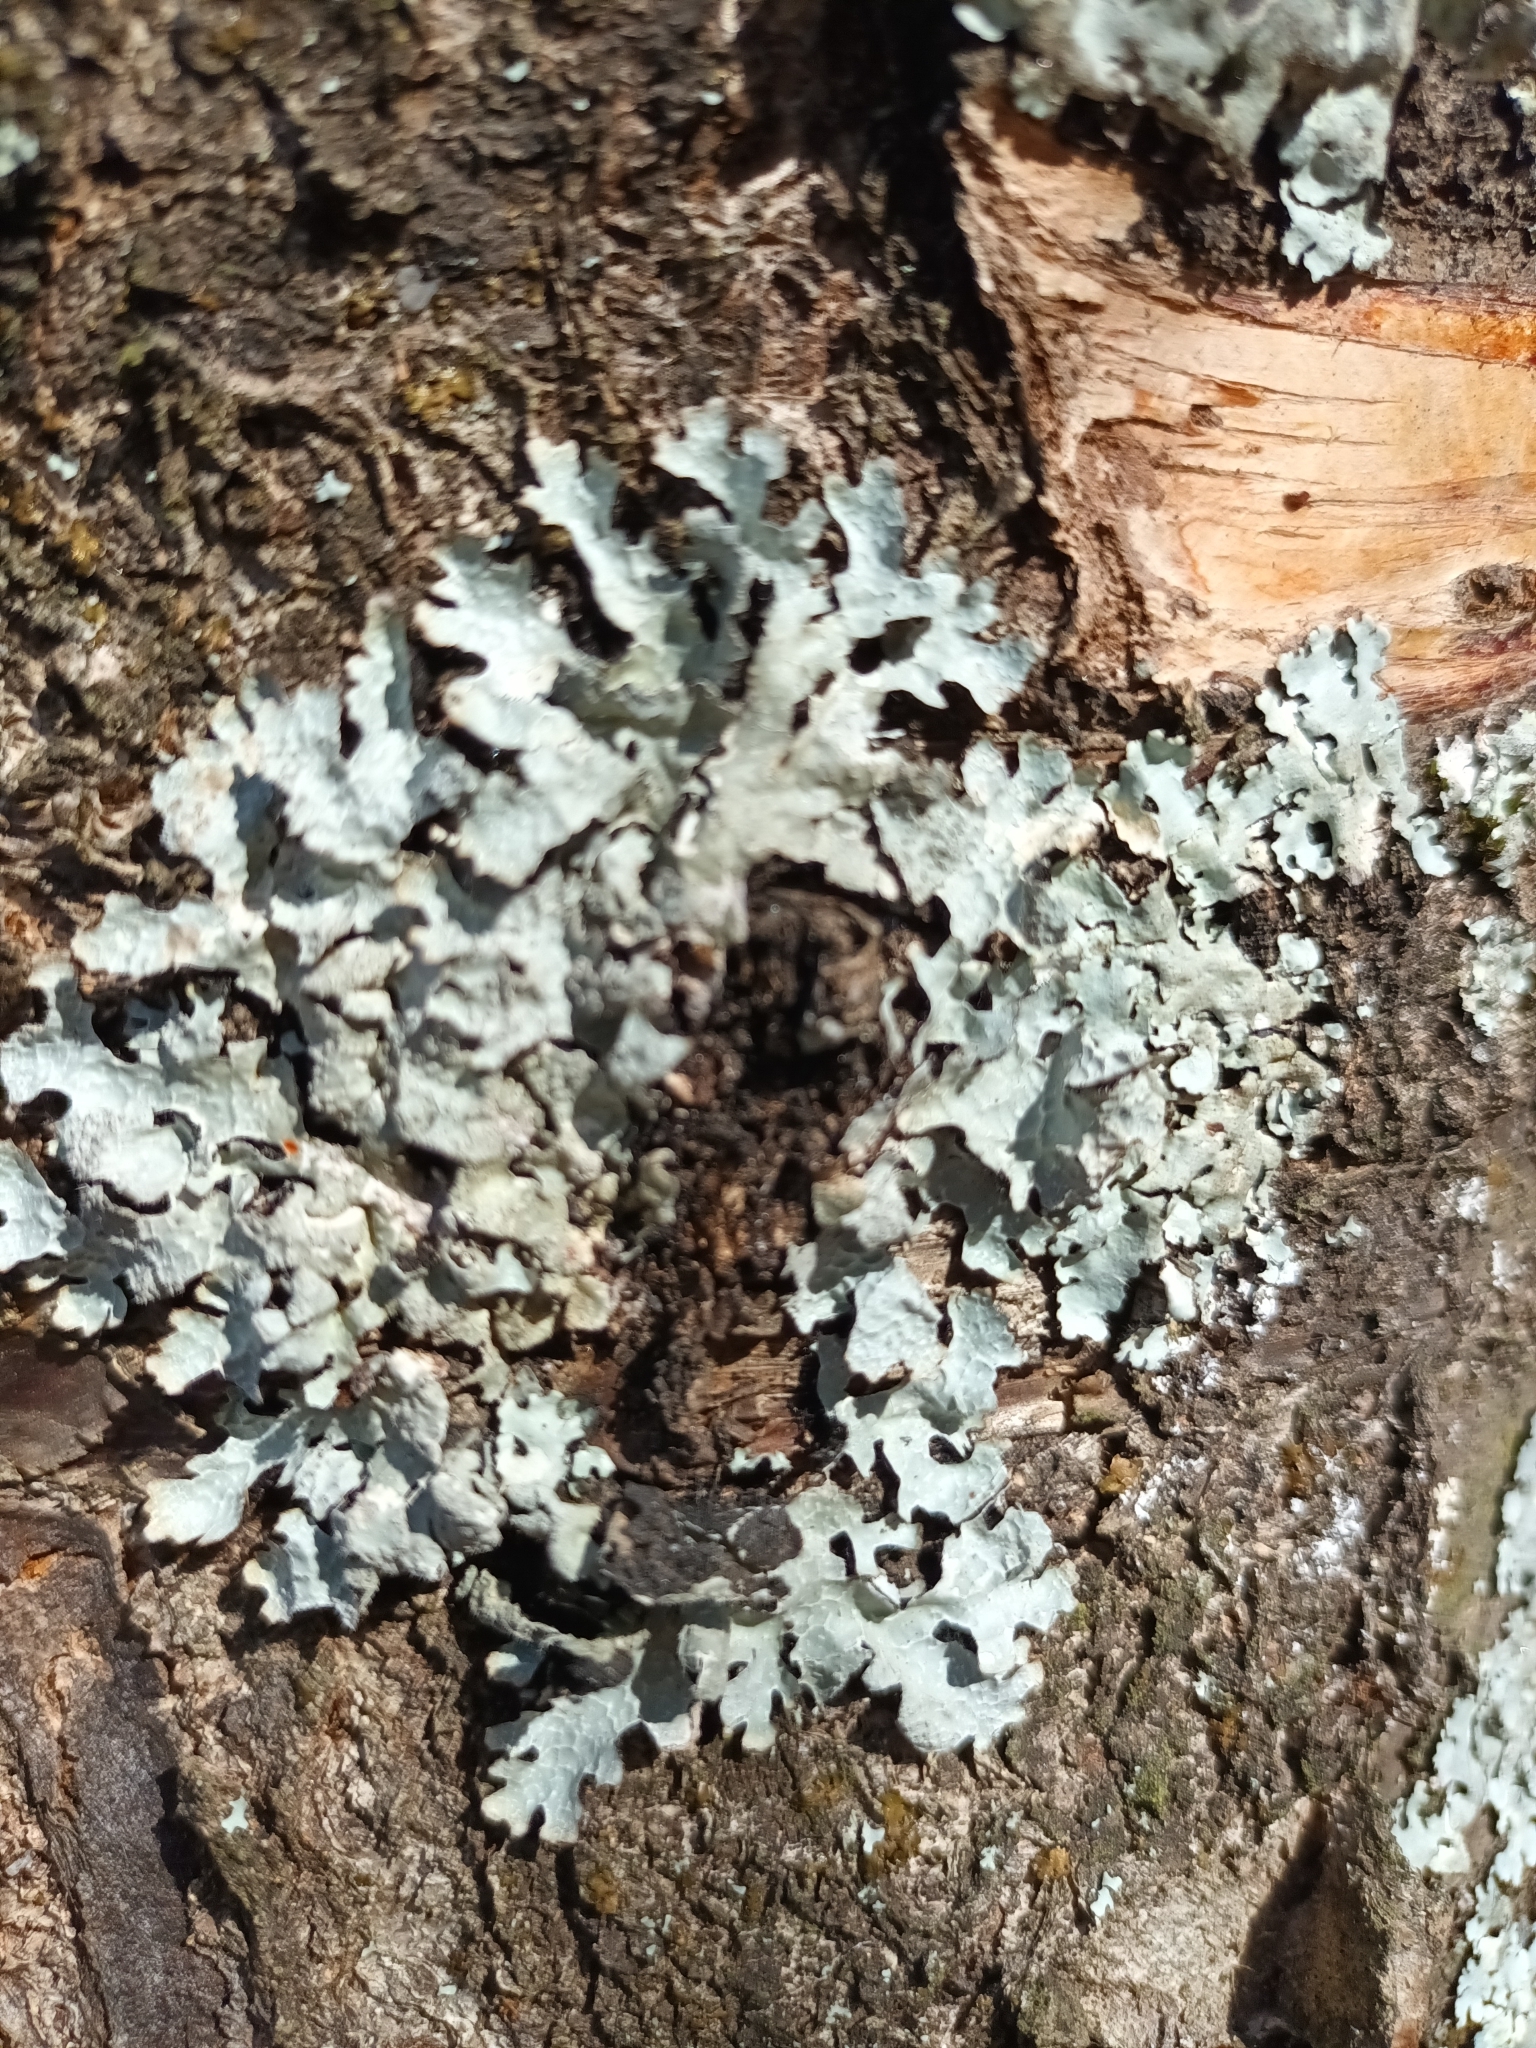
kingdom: Fungi
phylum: Ascomycota
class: Lecanoromycetes
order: Lecanorales
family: Parmeliaceae
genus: Parmelia
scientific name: Parmelia sulcata
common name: Netted shield lichen
